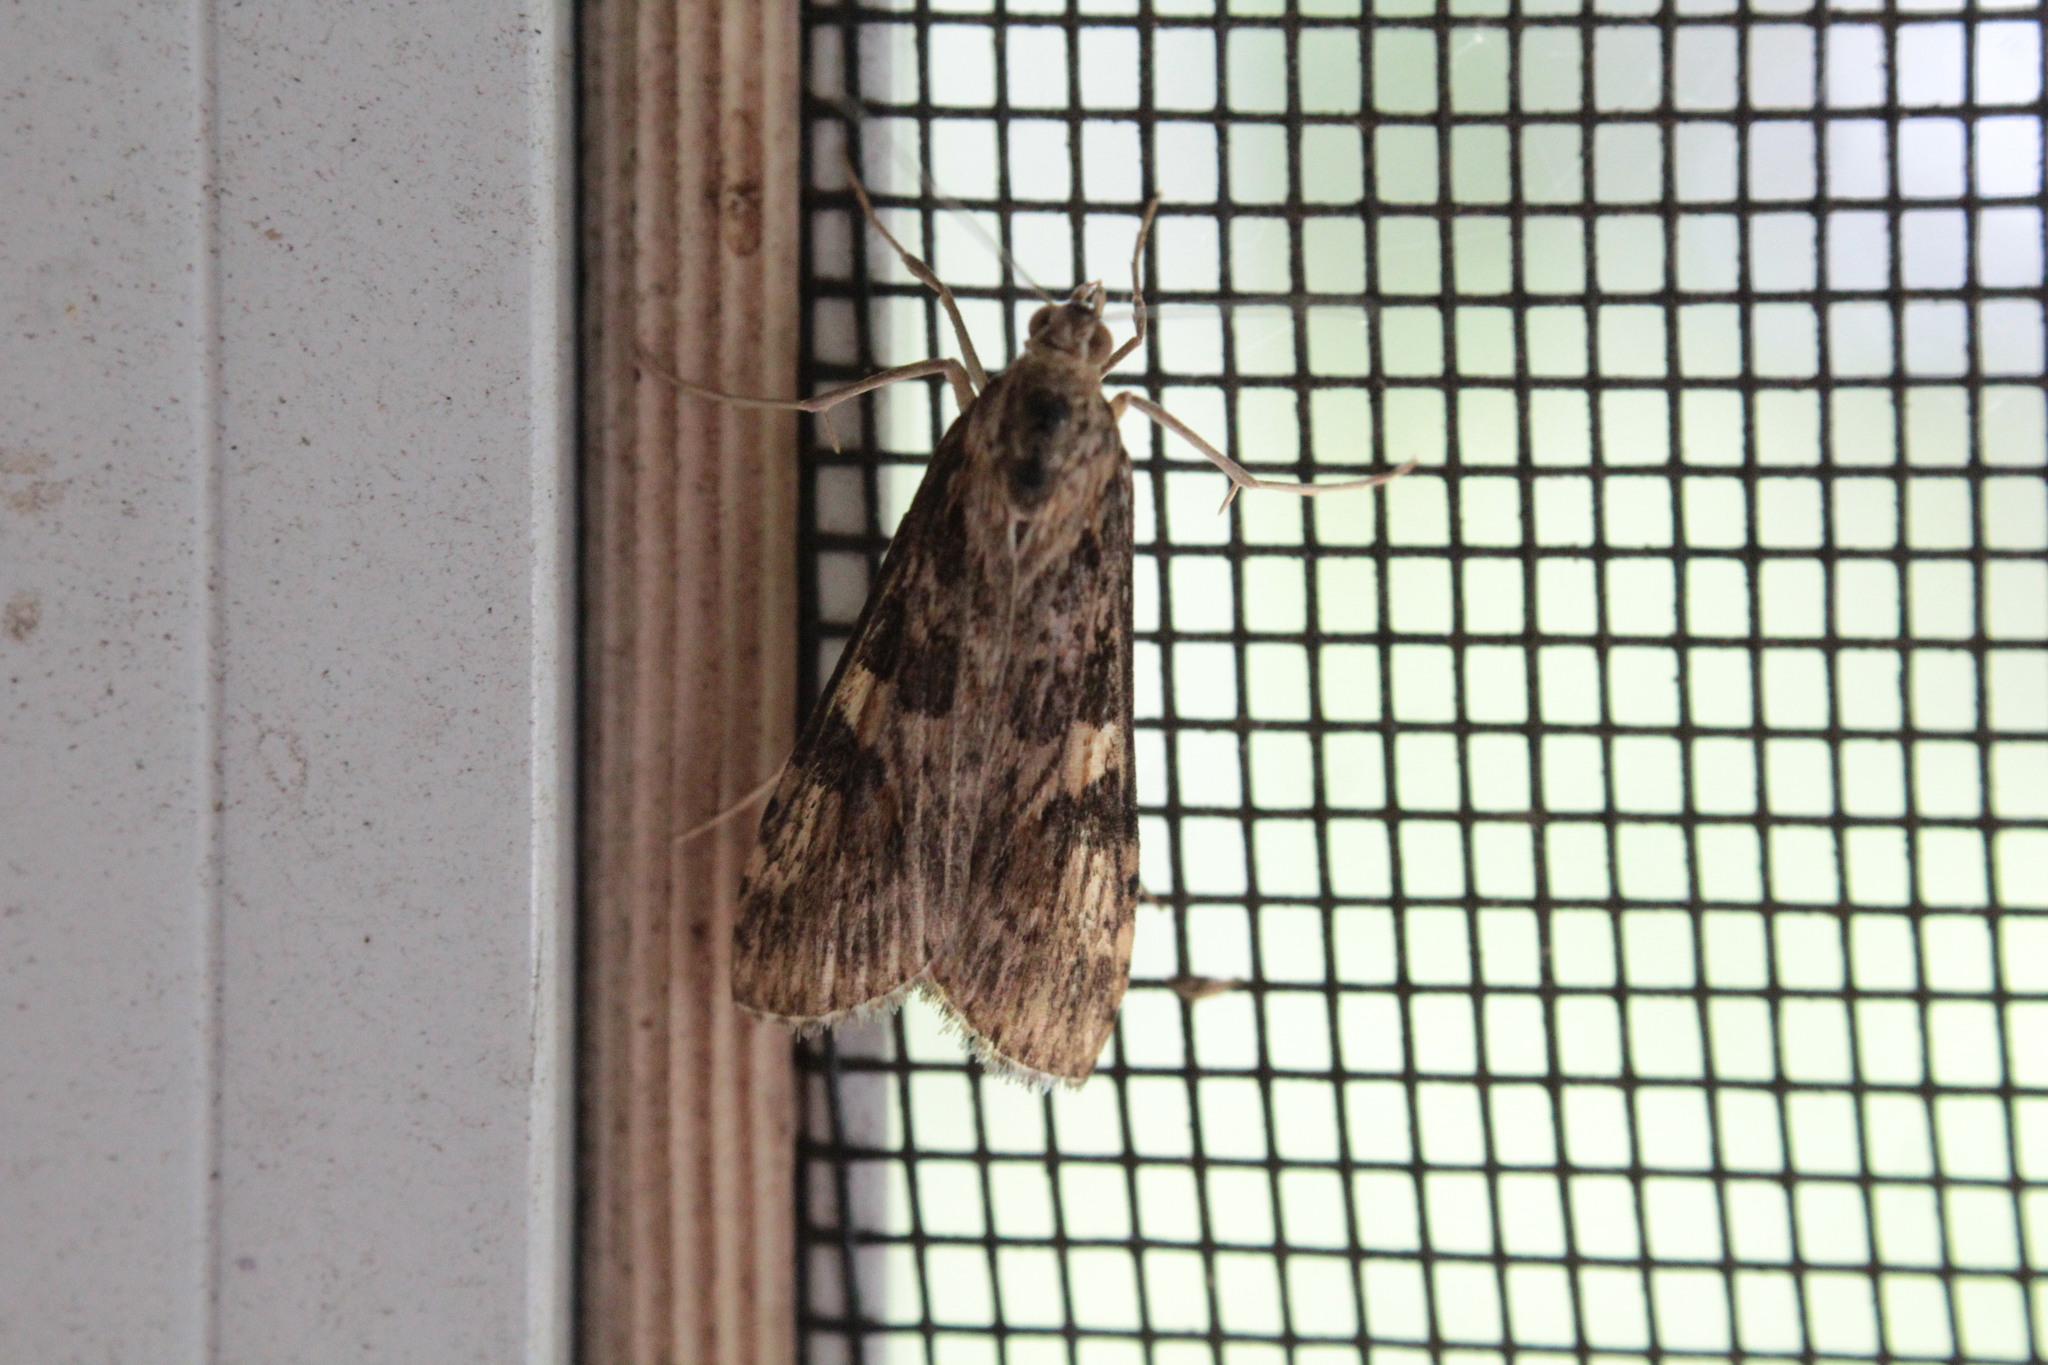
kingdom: Animalia
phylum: Arthropoda
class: Insecta
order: Lepidoptera
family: Crambidae
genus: Nomophila
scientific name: Nomophila nearctica
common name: American rush veneer
